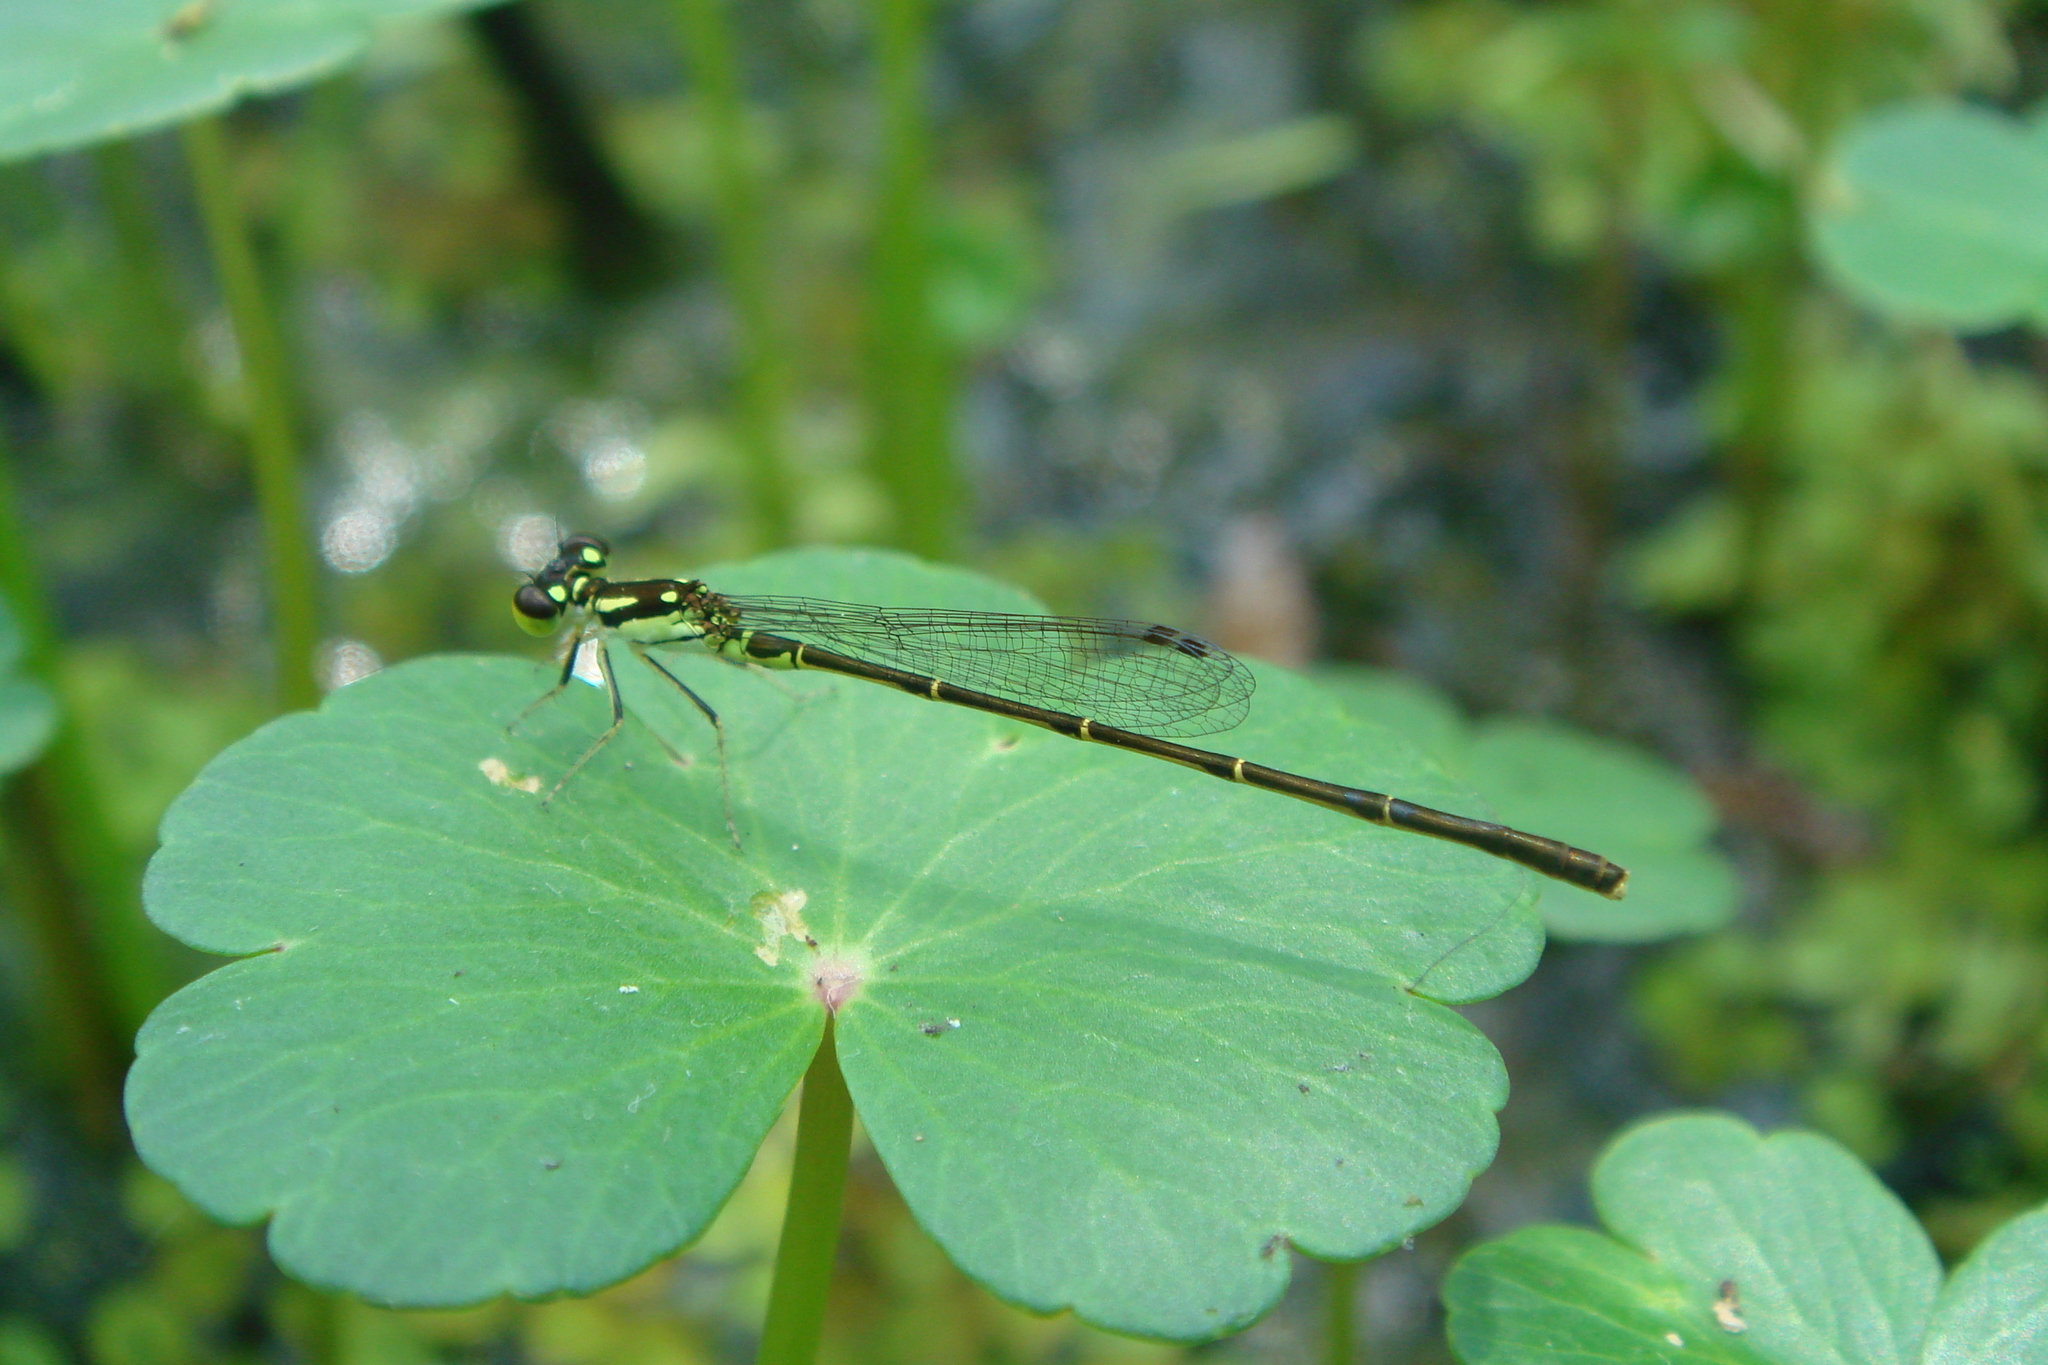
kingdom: Animalia
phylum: Arthropoda
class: Insecta
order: Odonata
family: Coenagrionidae
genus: Ischnura
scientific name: Ischnura posita
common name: Fragile forktail
